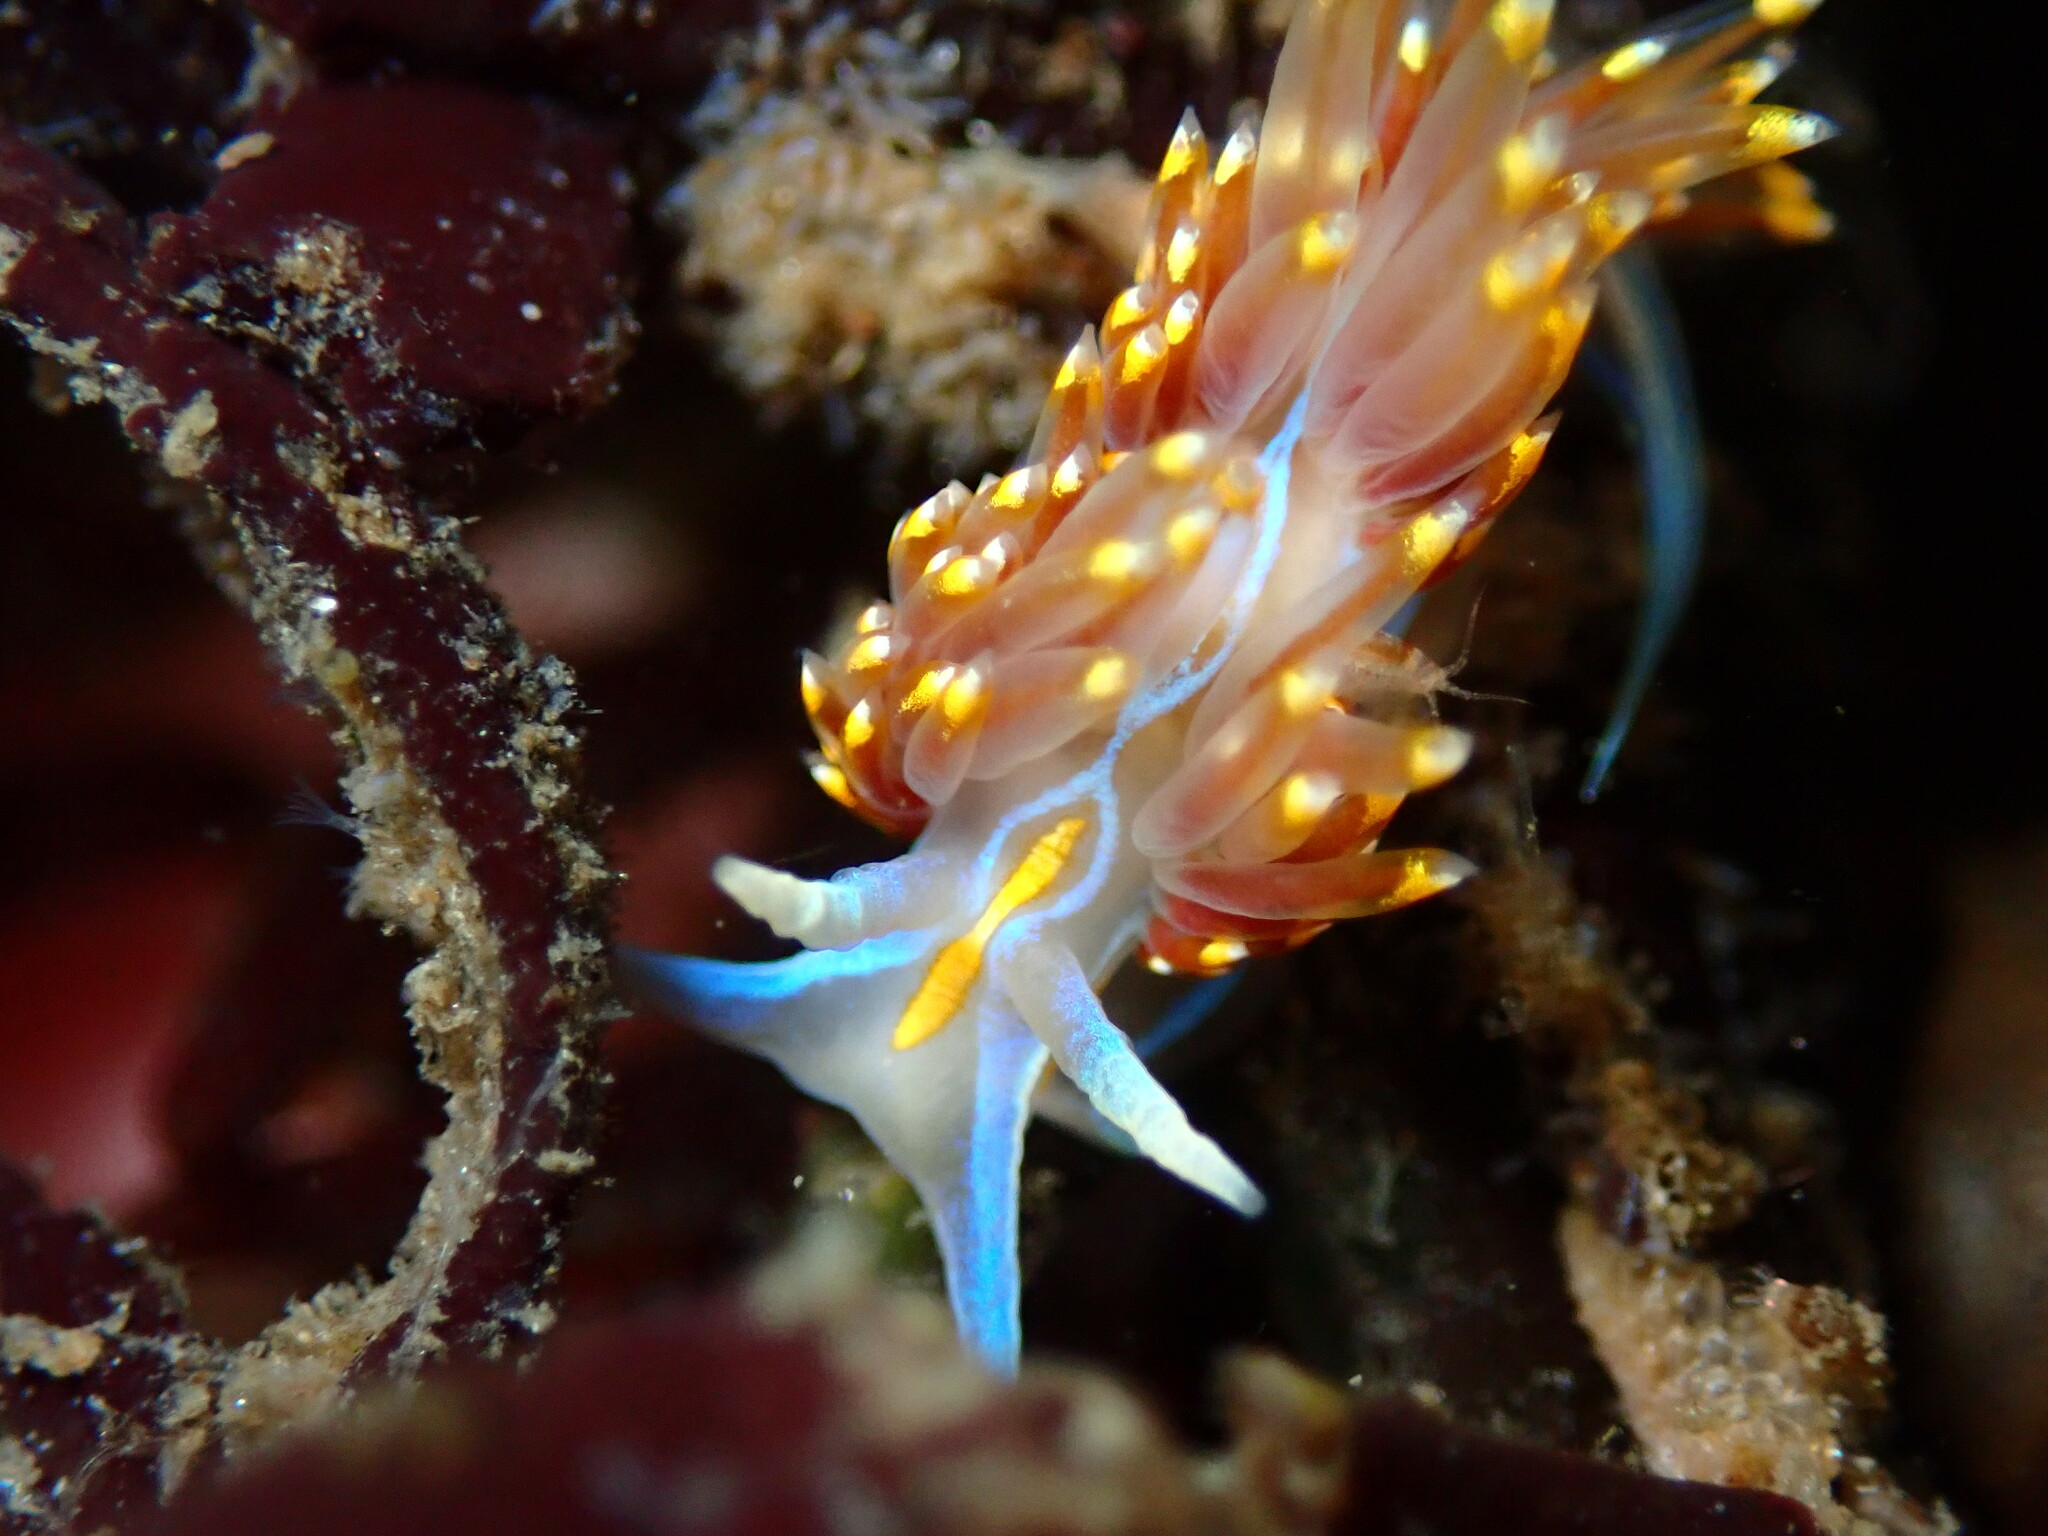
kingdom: Animalia
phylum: Mollusca
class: Gastropoda
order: Nudibranchia
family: Myrrhinidae
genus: Hermissenda
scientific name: Hermissenda opalescens
